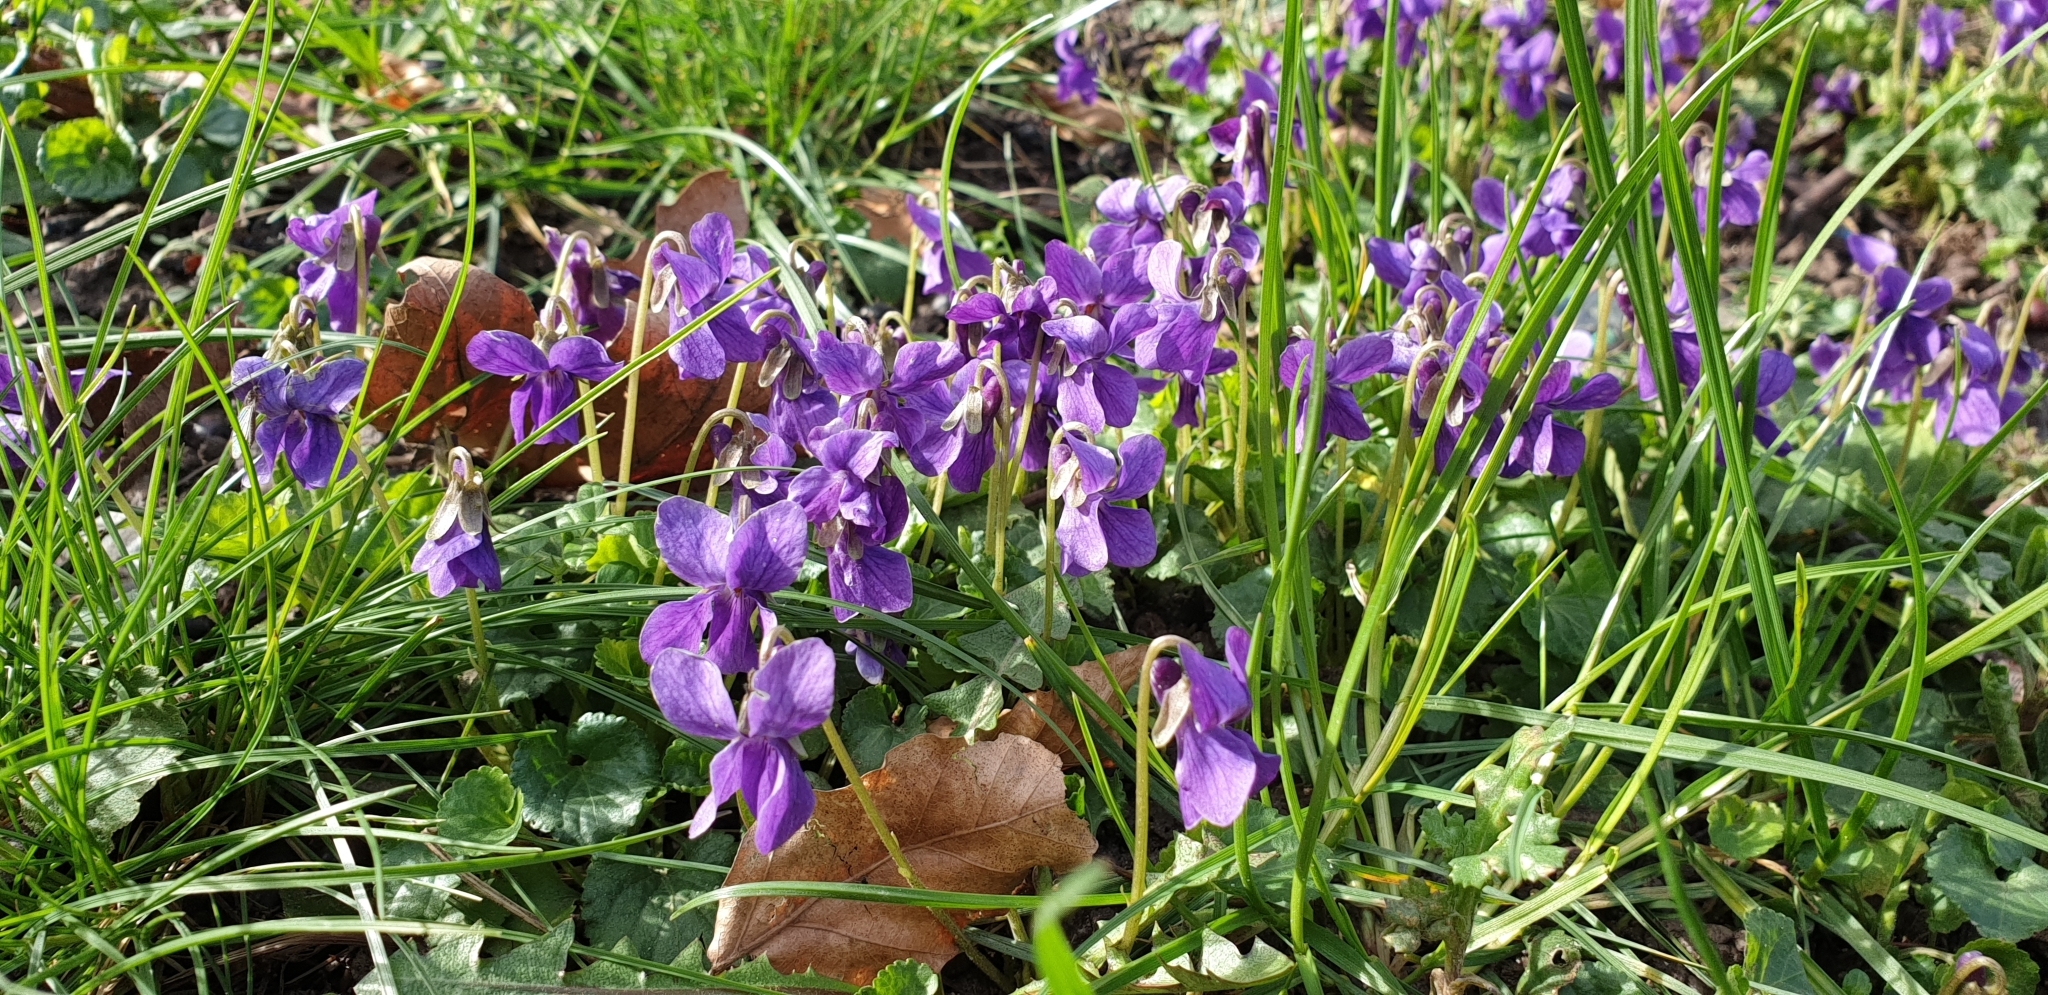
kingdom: Plantae
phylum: Tracheophyta
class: Magnoliopsida
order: Malpighiales
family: Violaceae
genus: Viola
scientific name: Viola odorata
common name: Sweet violet
